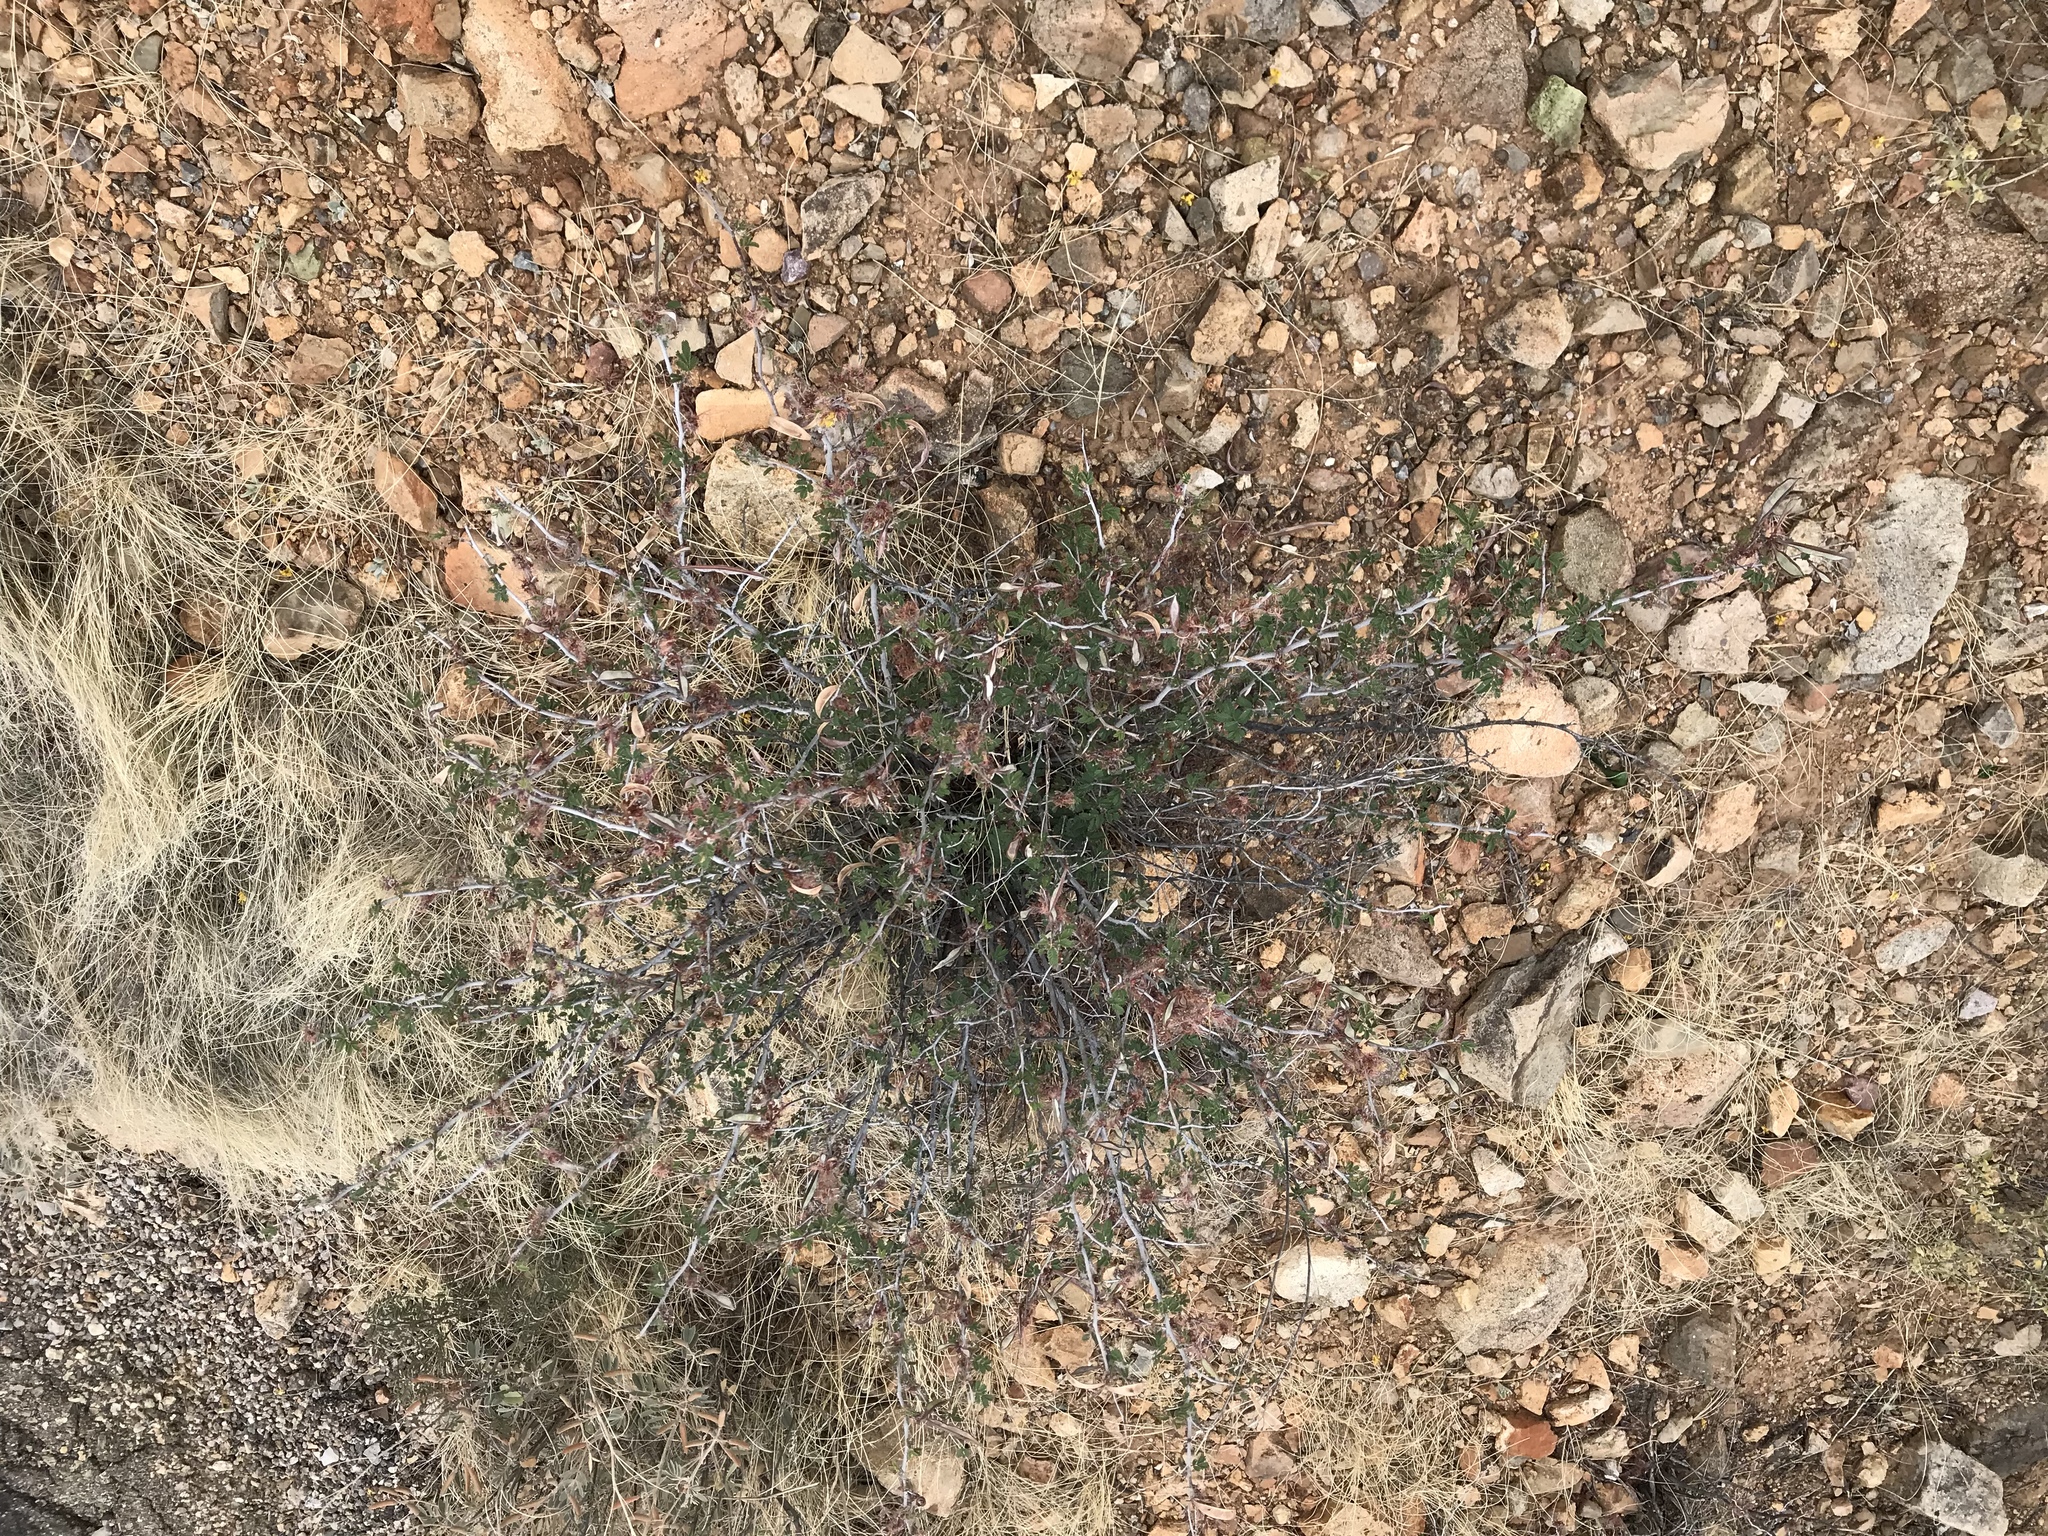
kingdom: Plantae
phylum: Tracheophyta
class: Magnoliopsida
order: Fabales
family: Fabaceae
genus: Calliandra
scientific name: Calliandra eriophylla
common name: Fairy-duster
